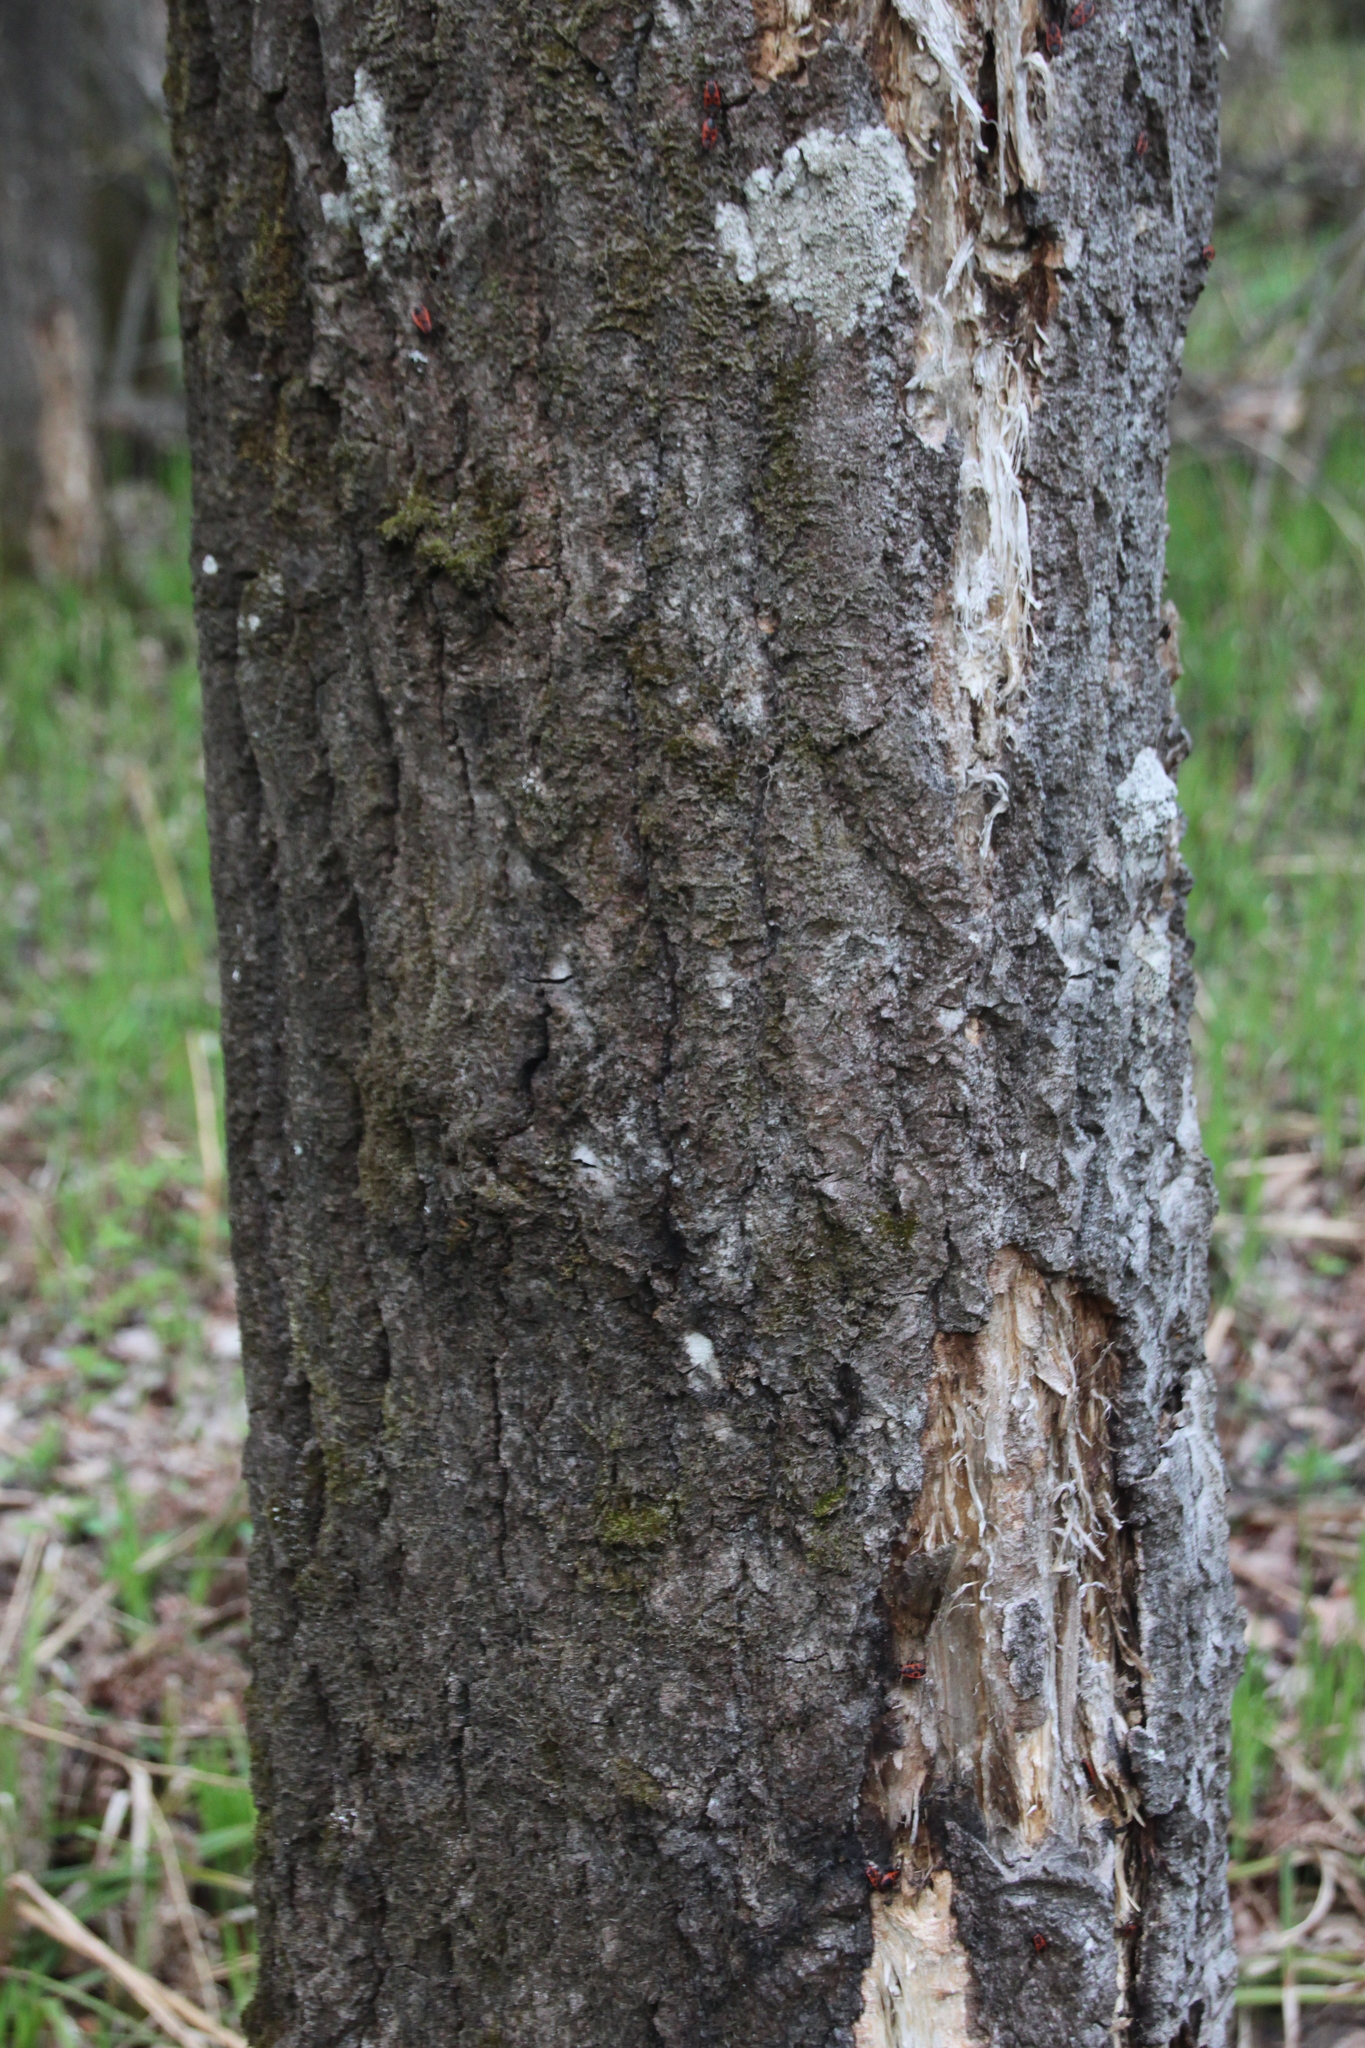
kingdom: Plantae
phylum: Tracheophyta
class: Magnoliopsida
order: Malpighiales
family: Salicaceae
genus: Populus
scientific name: Populus tremula
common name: European aspen
